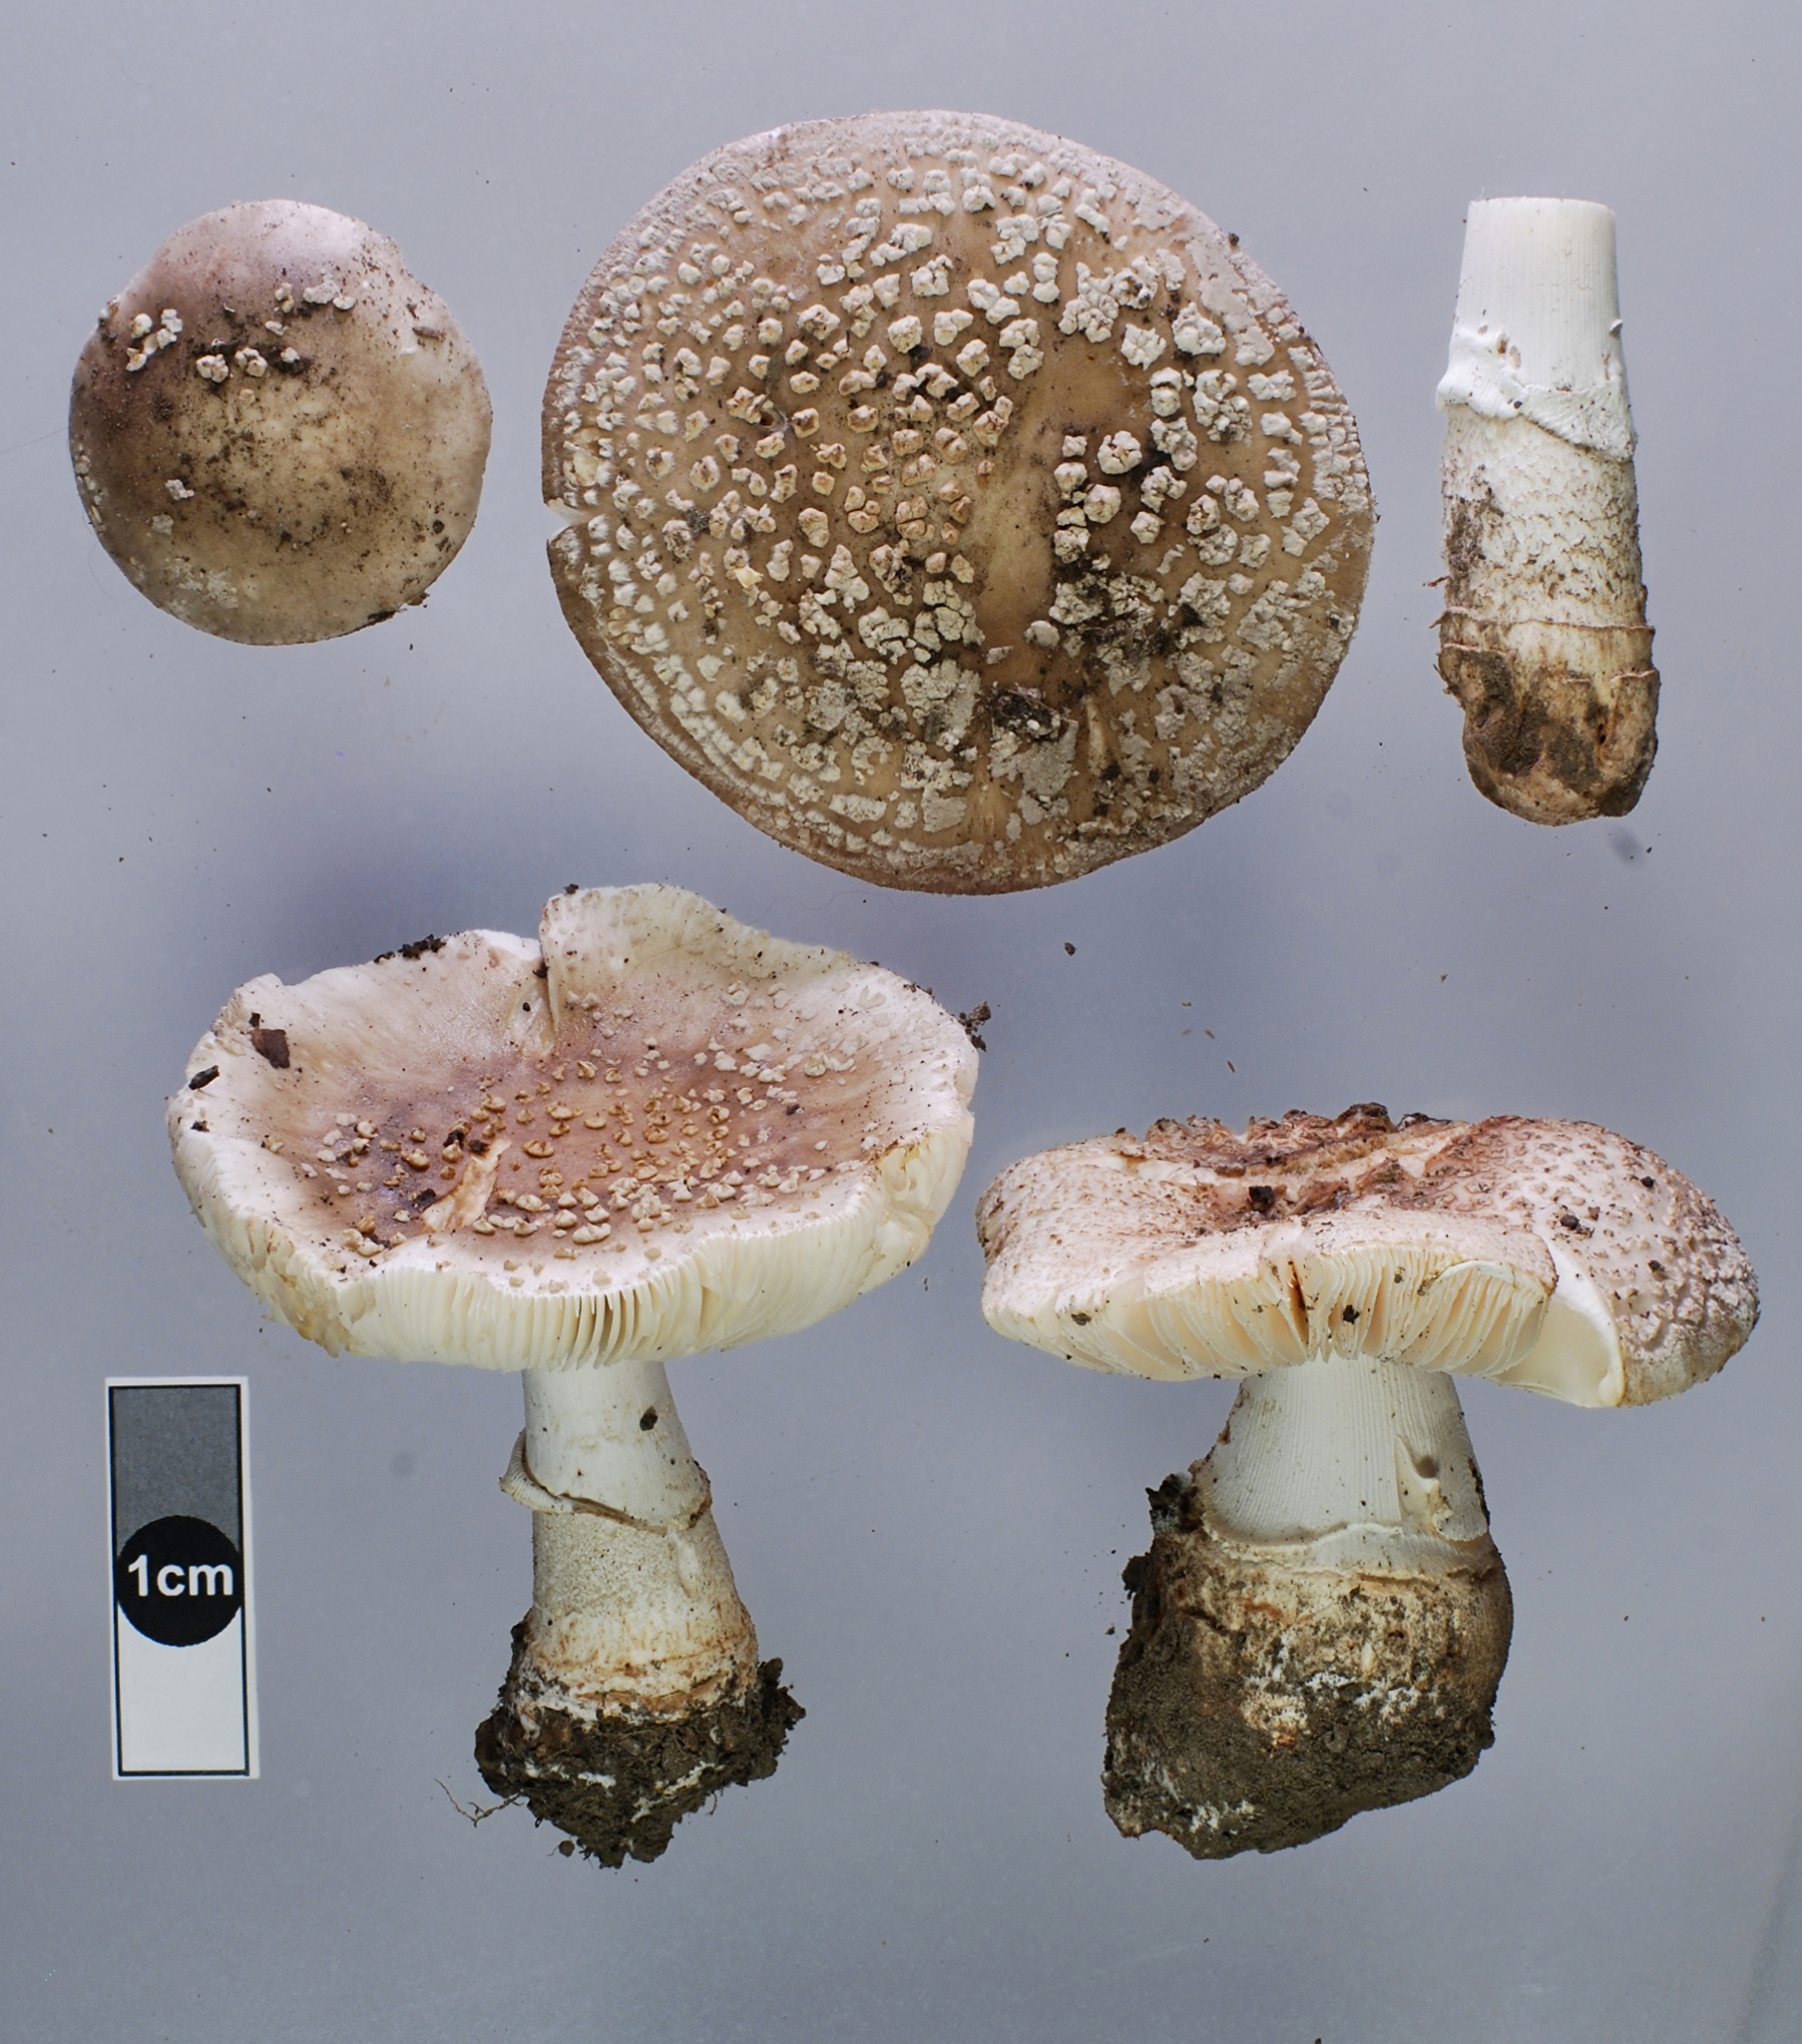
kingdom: Fungi
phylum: Basidiomycota
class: Agaricomycetes
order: Agaricales
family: Amanitaceae
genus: Amanita
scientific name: Amanita excelsa
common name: European false blusher
